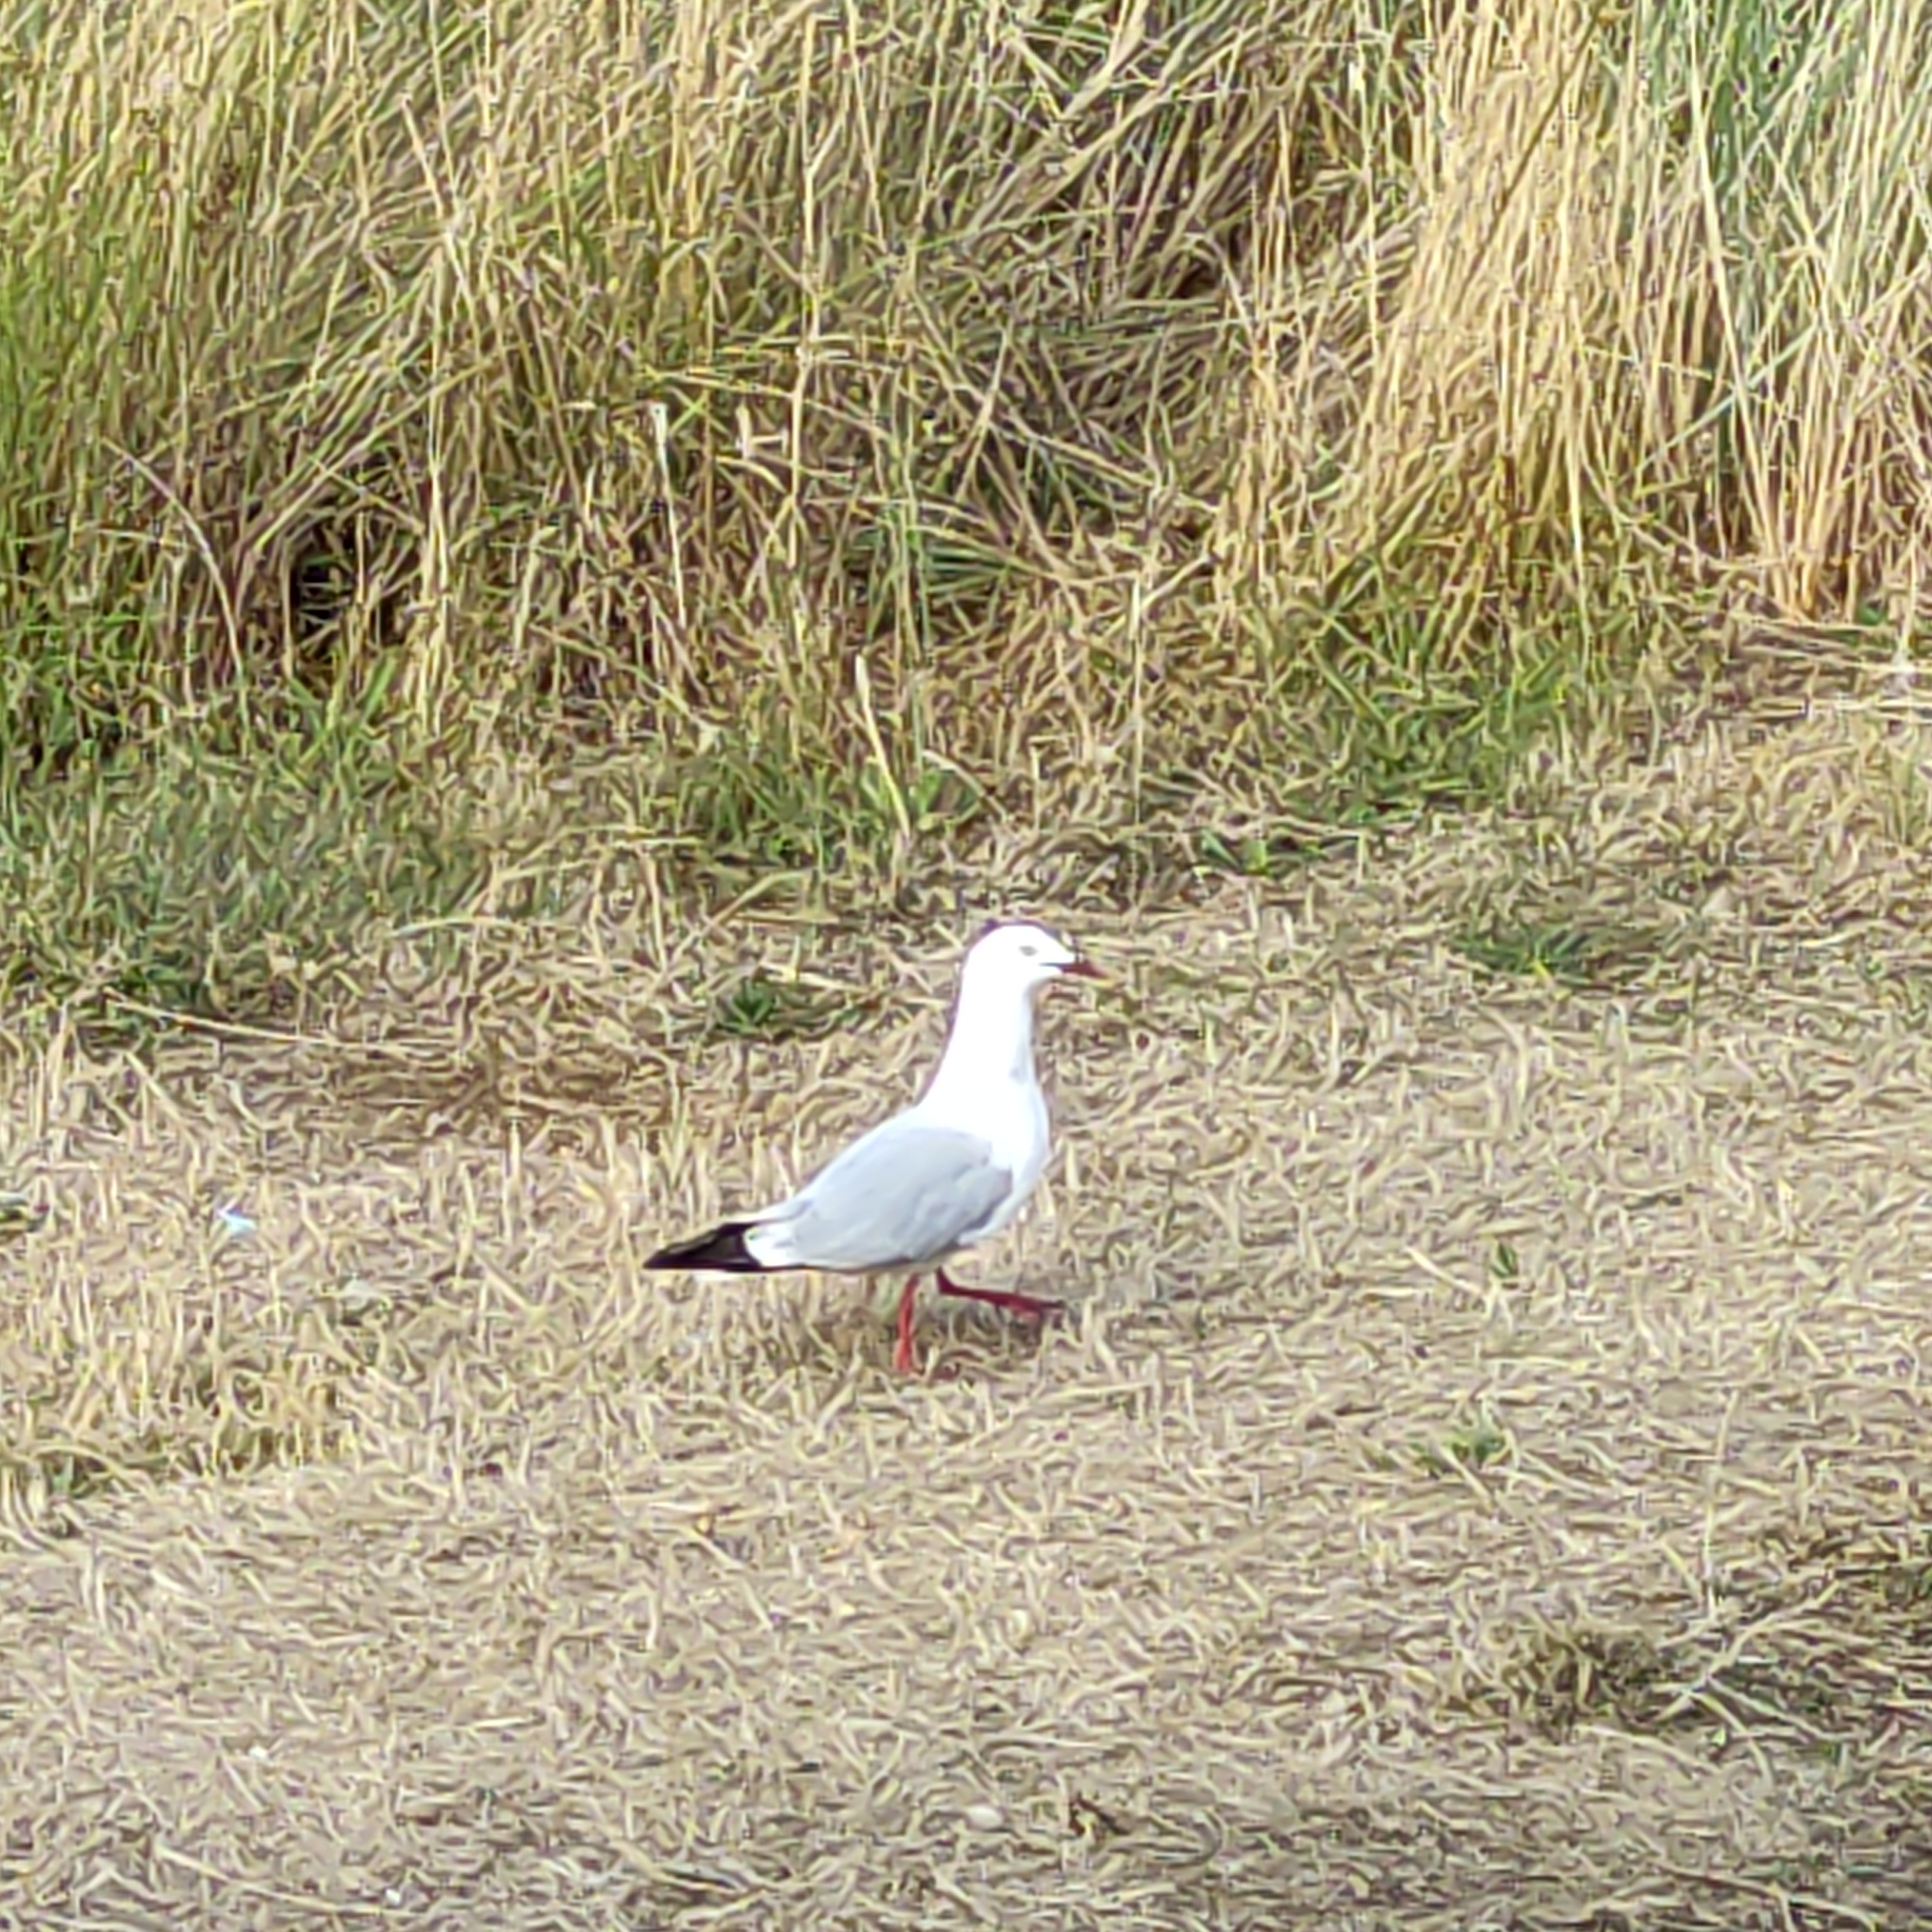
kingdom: Animalia
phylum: Chordata
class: Aves
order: Charadriiformes
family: Laridae
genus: Chroicocephalus
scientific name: Chroicocephalus novaehollandiae
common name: Silver gull
